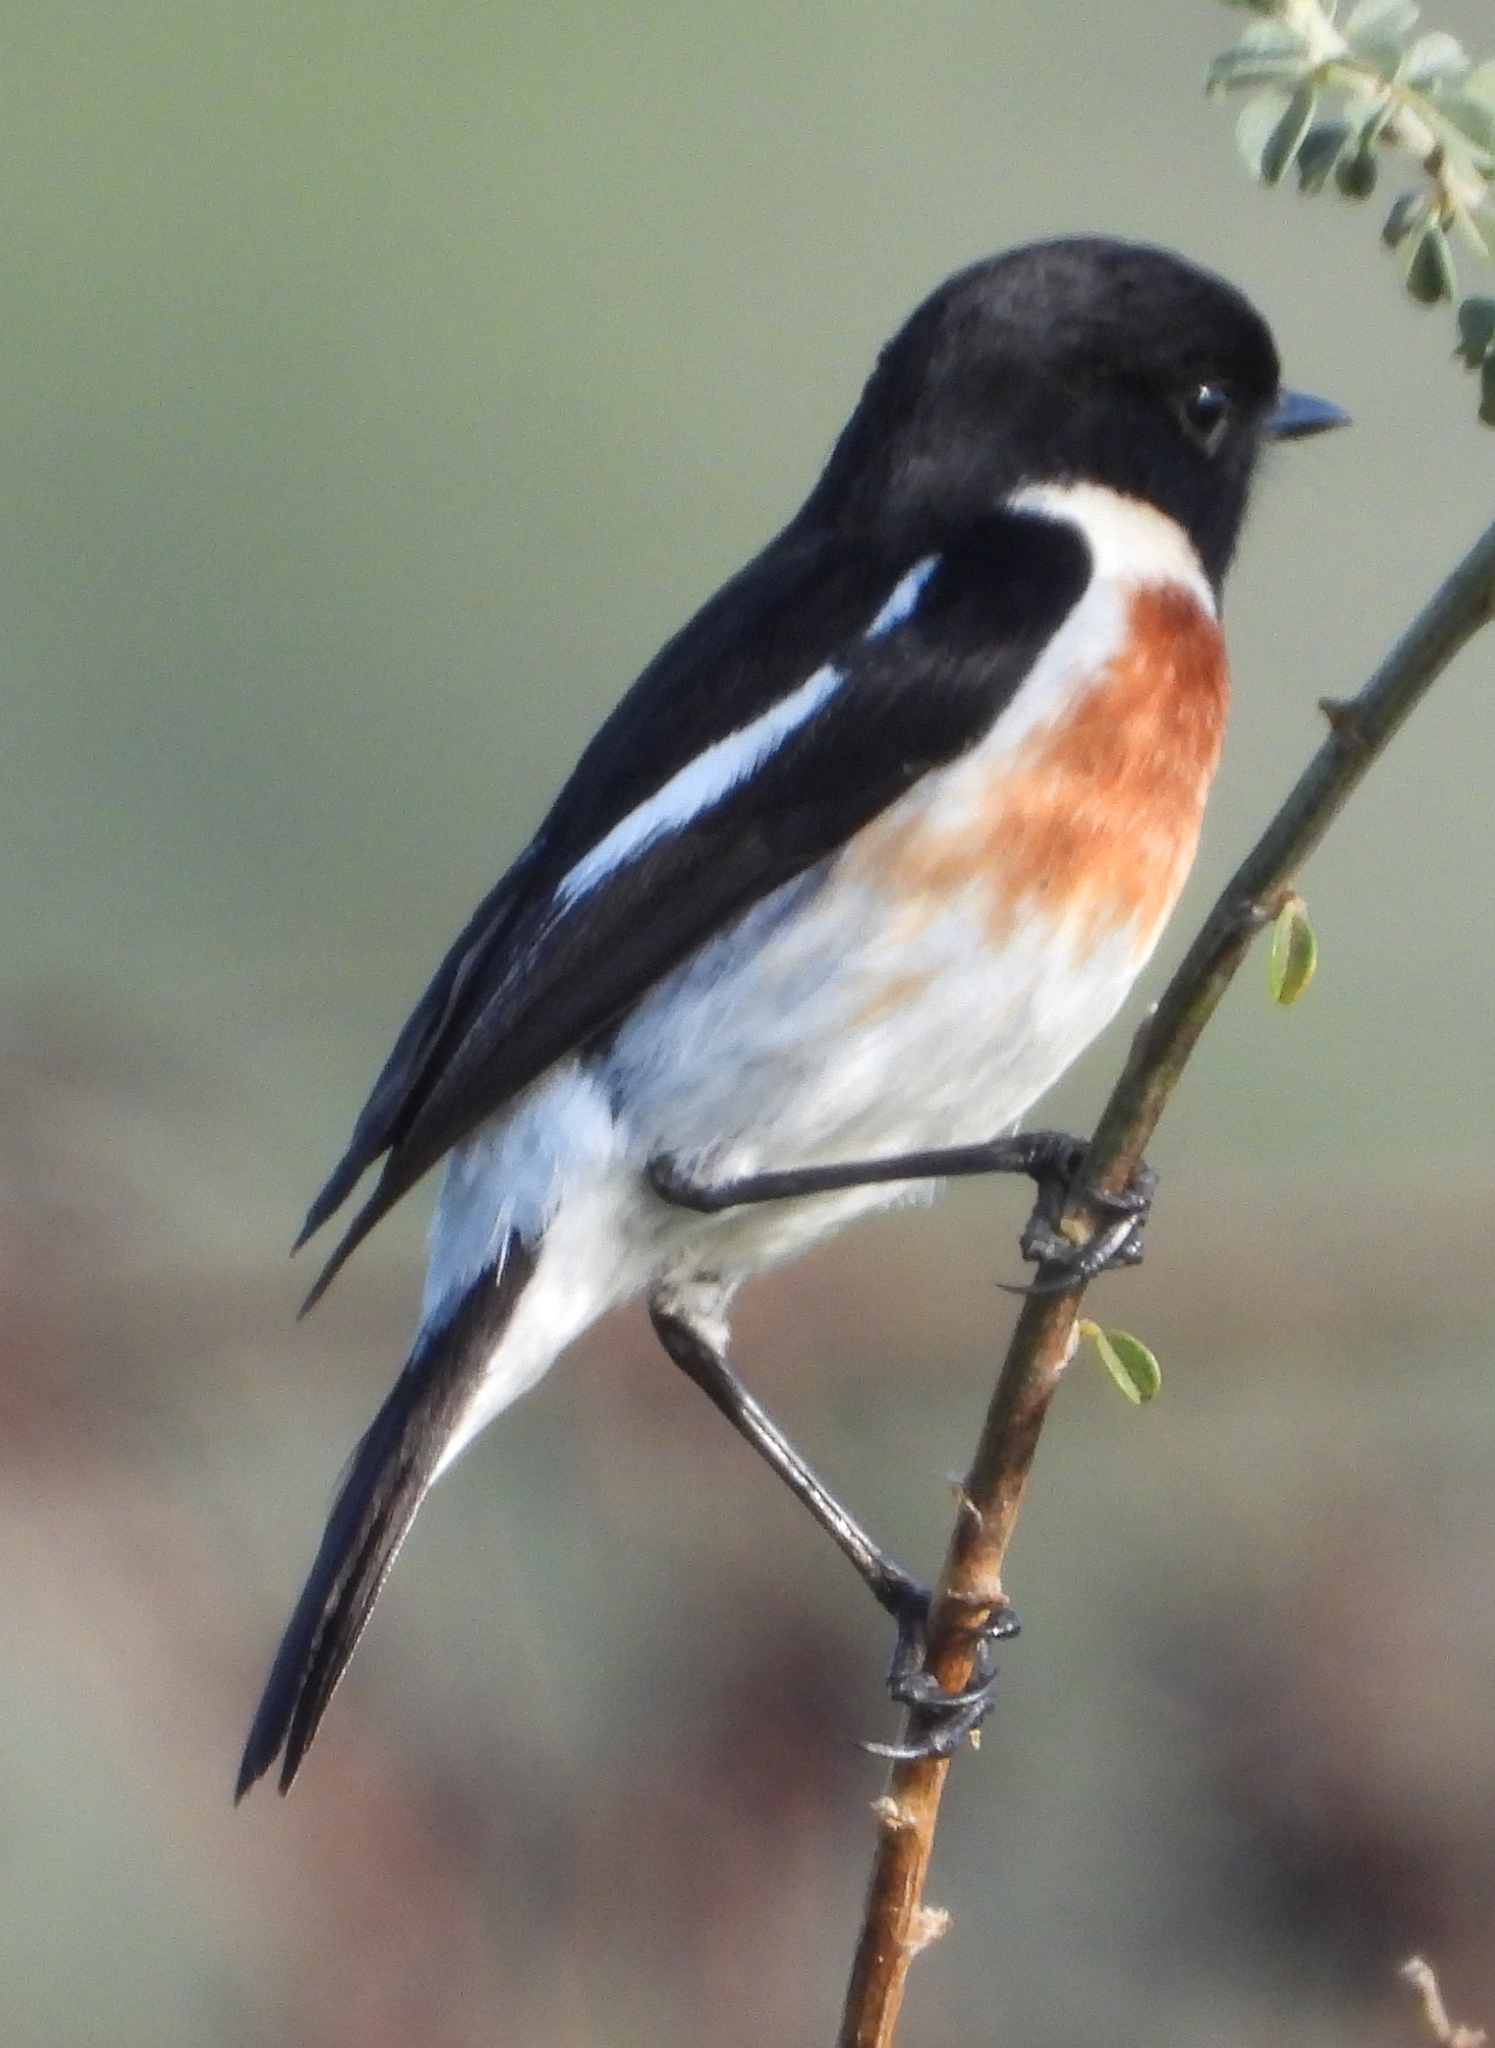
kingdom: Animalia
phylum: Chordata
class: Aves
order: Passeriformes
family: Muscicapidae
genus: Saxicola
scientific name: Saxicola torquatus
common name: African stonechat
